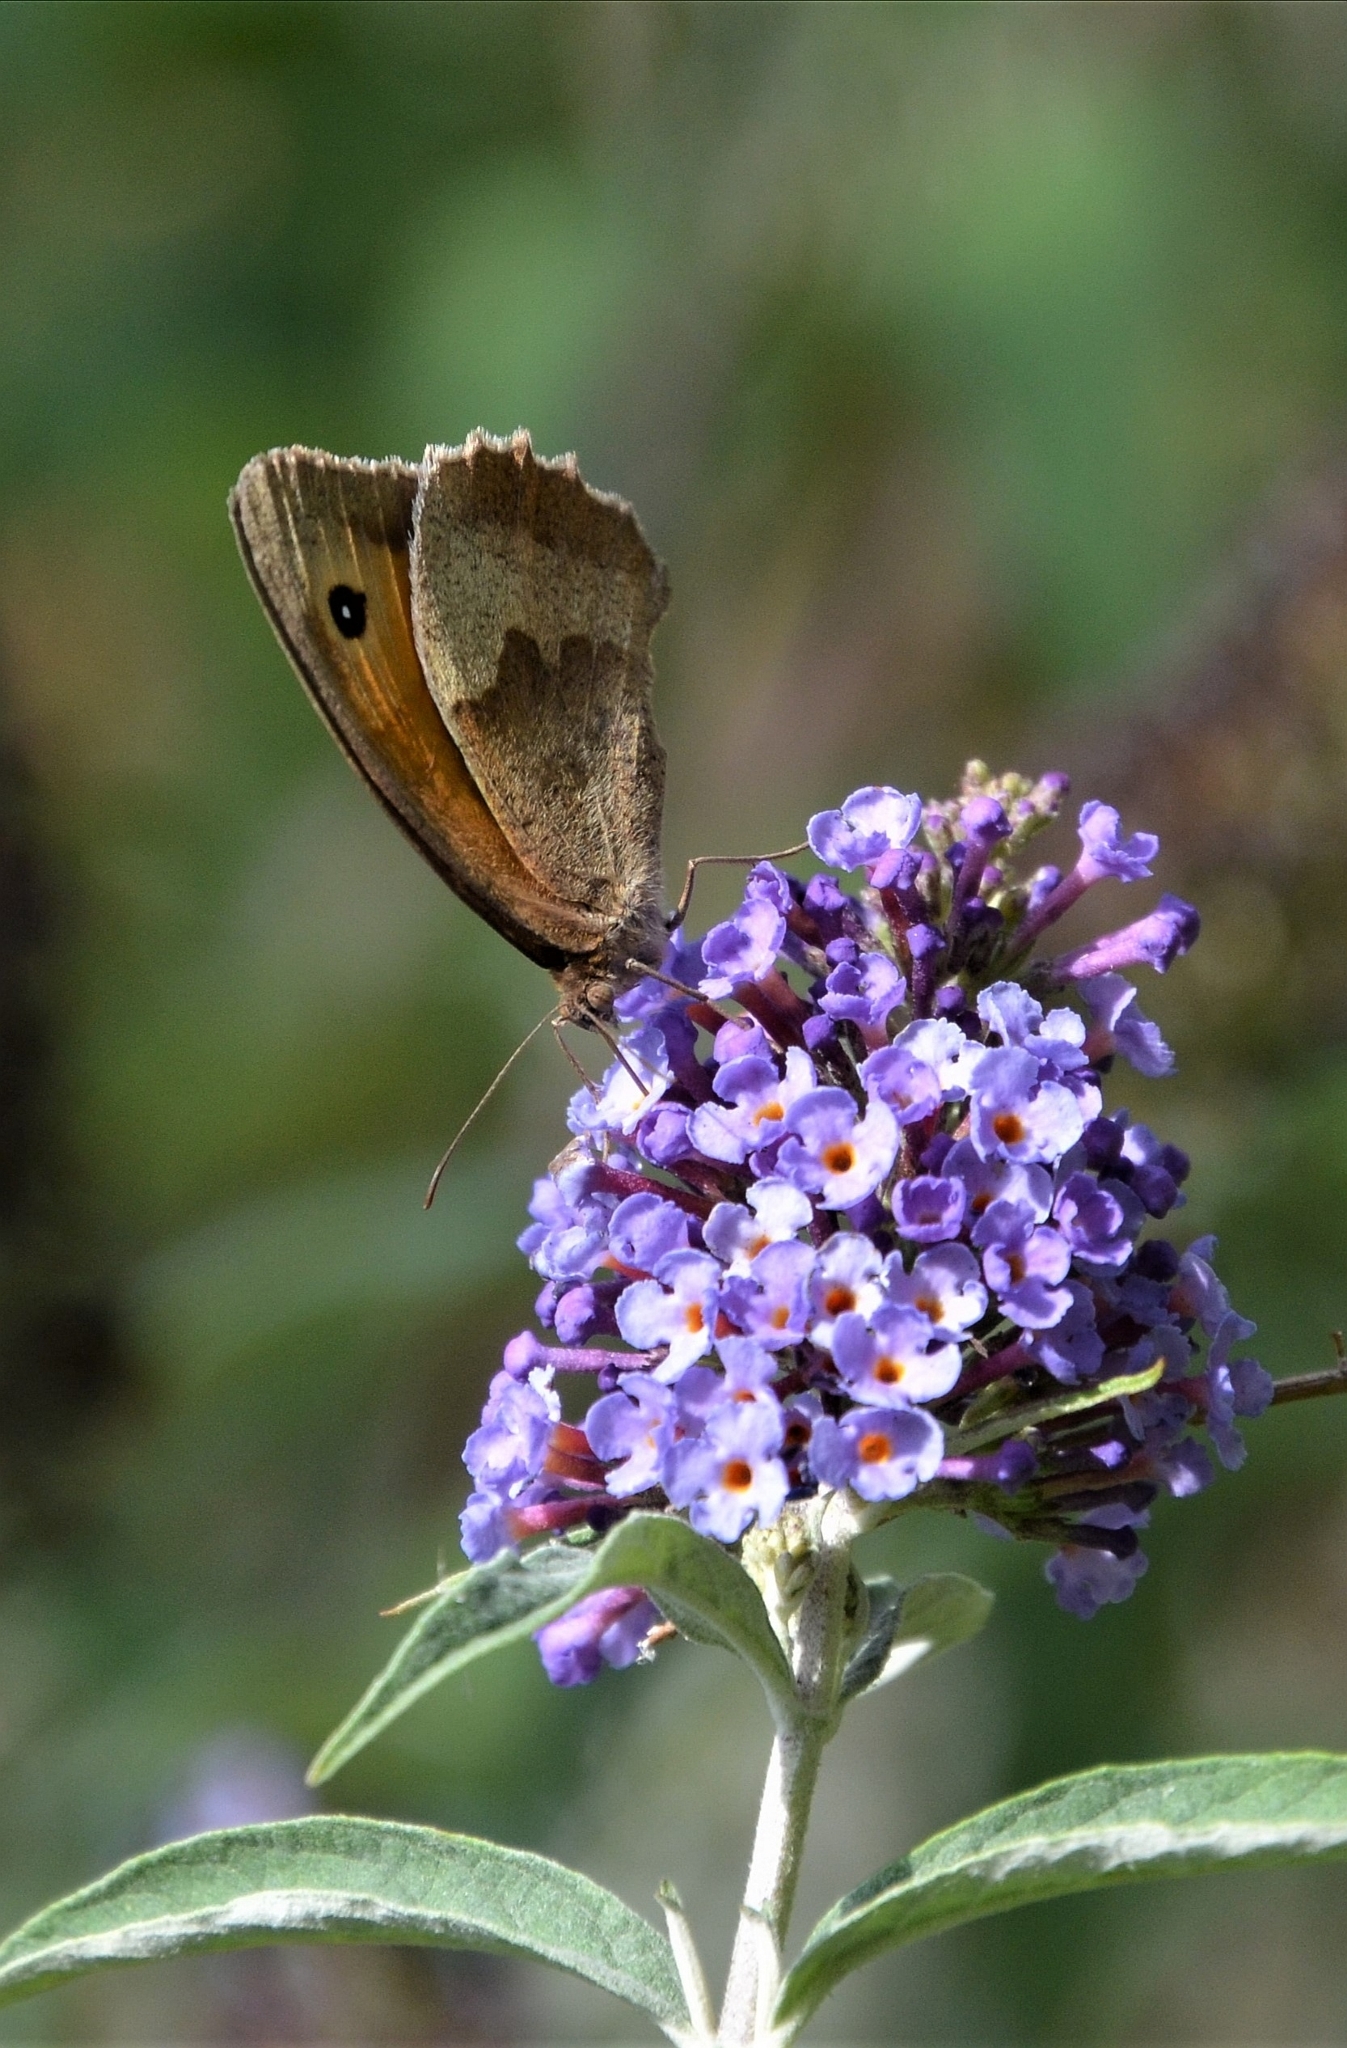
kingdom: Animalia
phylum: Arthropoda
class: Insecta
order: Lepidoptera
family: Nymphalidae
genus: Maniola
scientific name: Maniola jurtina
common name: Meadow brown
